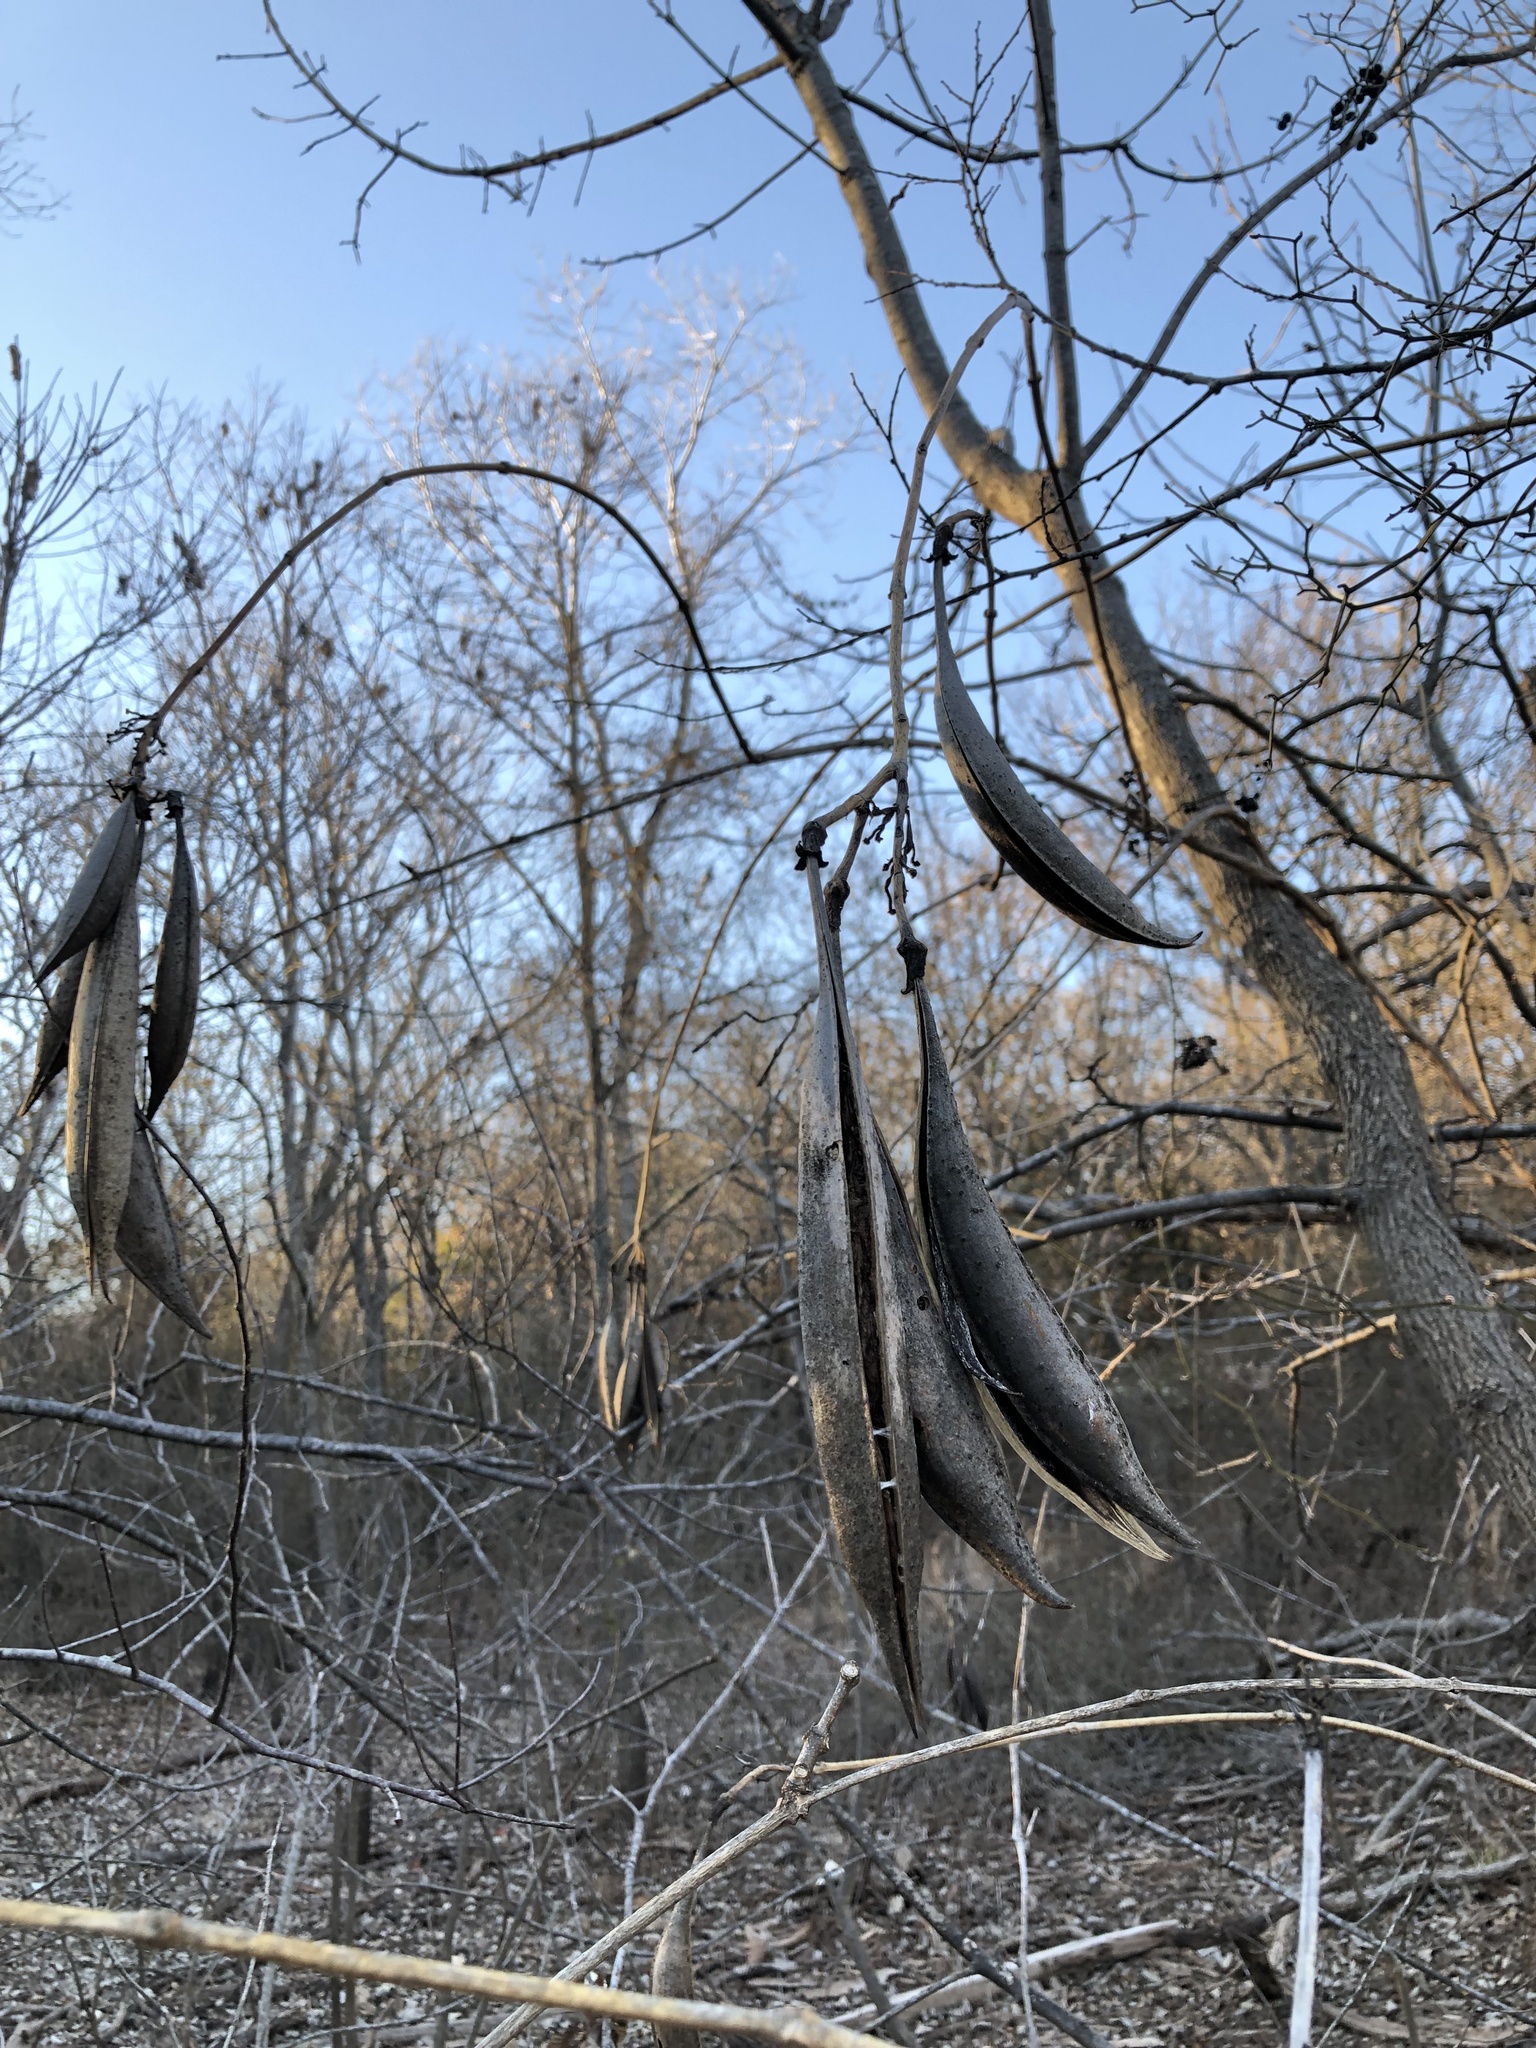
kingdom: Plantae
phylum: Tracheophyta
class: Magnoliopsida
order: Lamiales
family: Bignoniaceae
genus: Campsis
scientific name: Campsis radicans
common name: Trumpet-creeper
